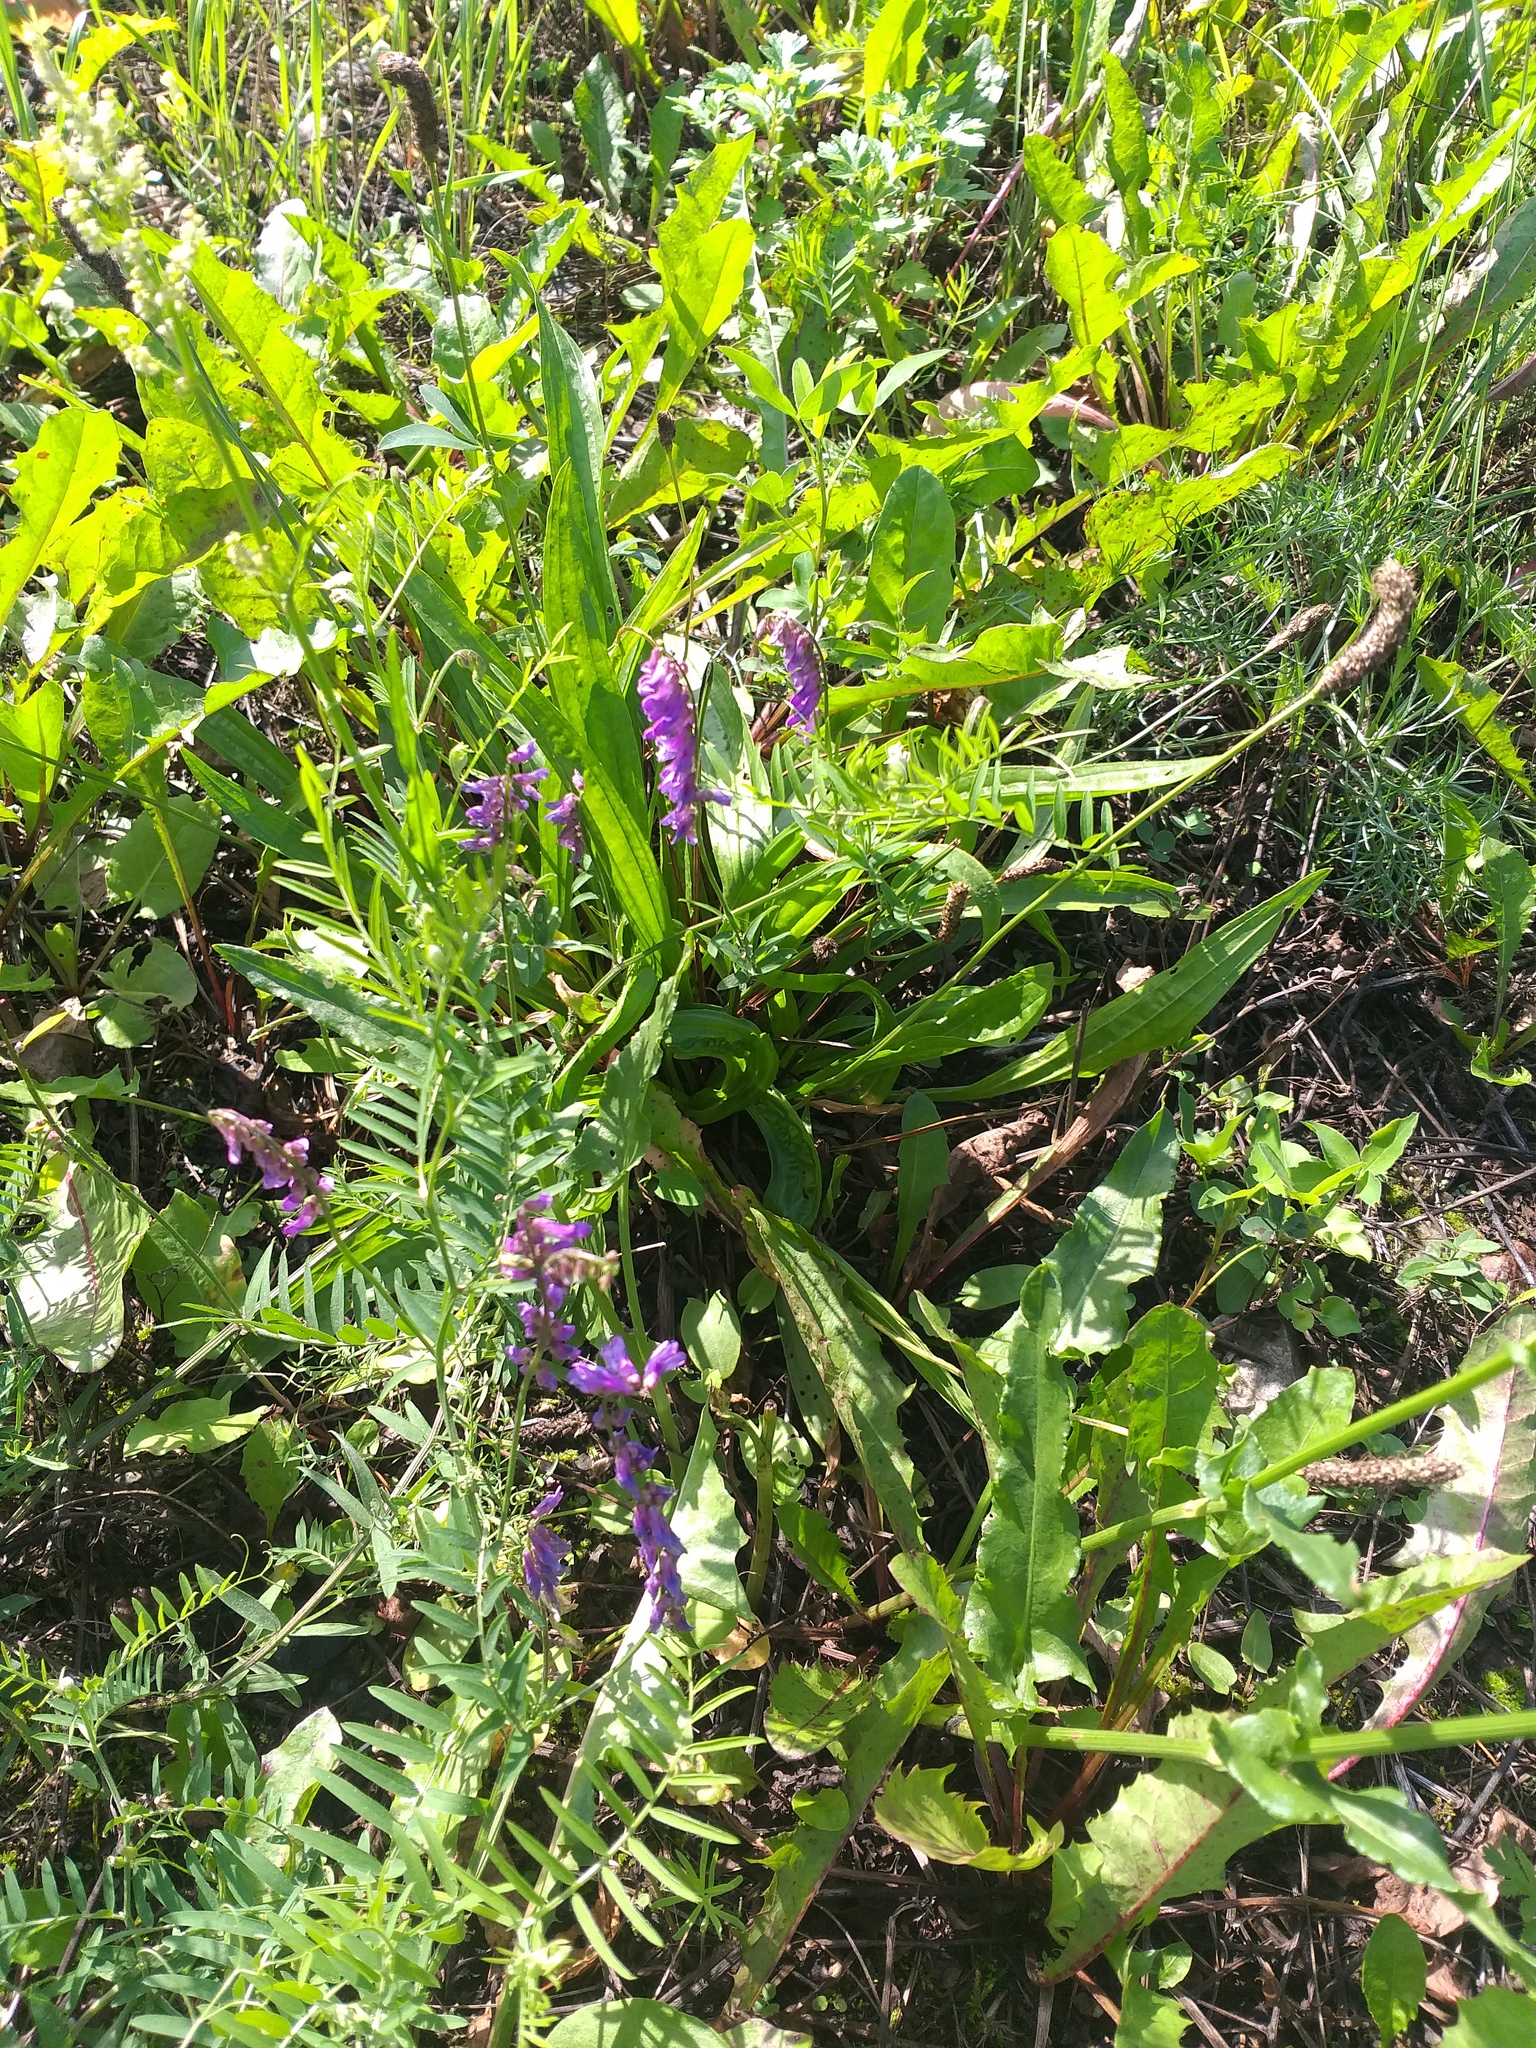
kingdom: Plantae
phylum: Tracheophyta
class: Magnoliopsida
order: Fabales
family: Fabaceae
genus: Vicia
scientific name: Vicia cracca
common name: Bird vetch
